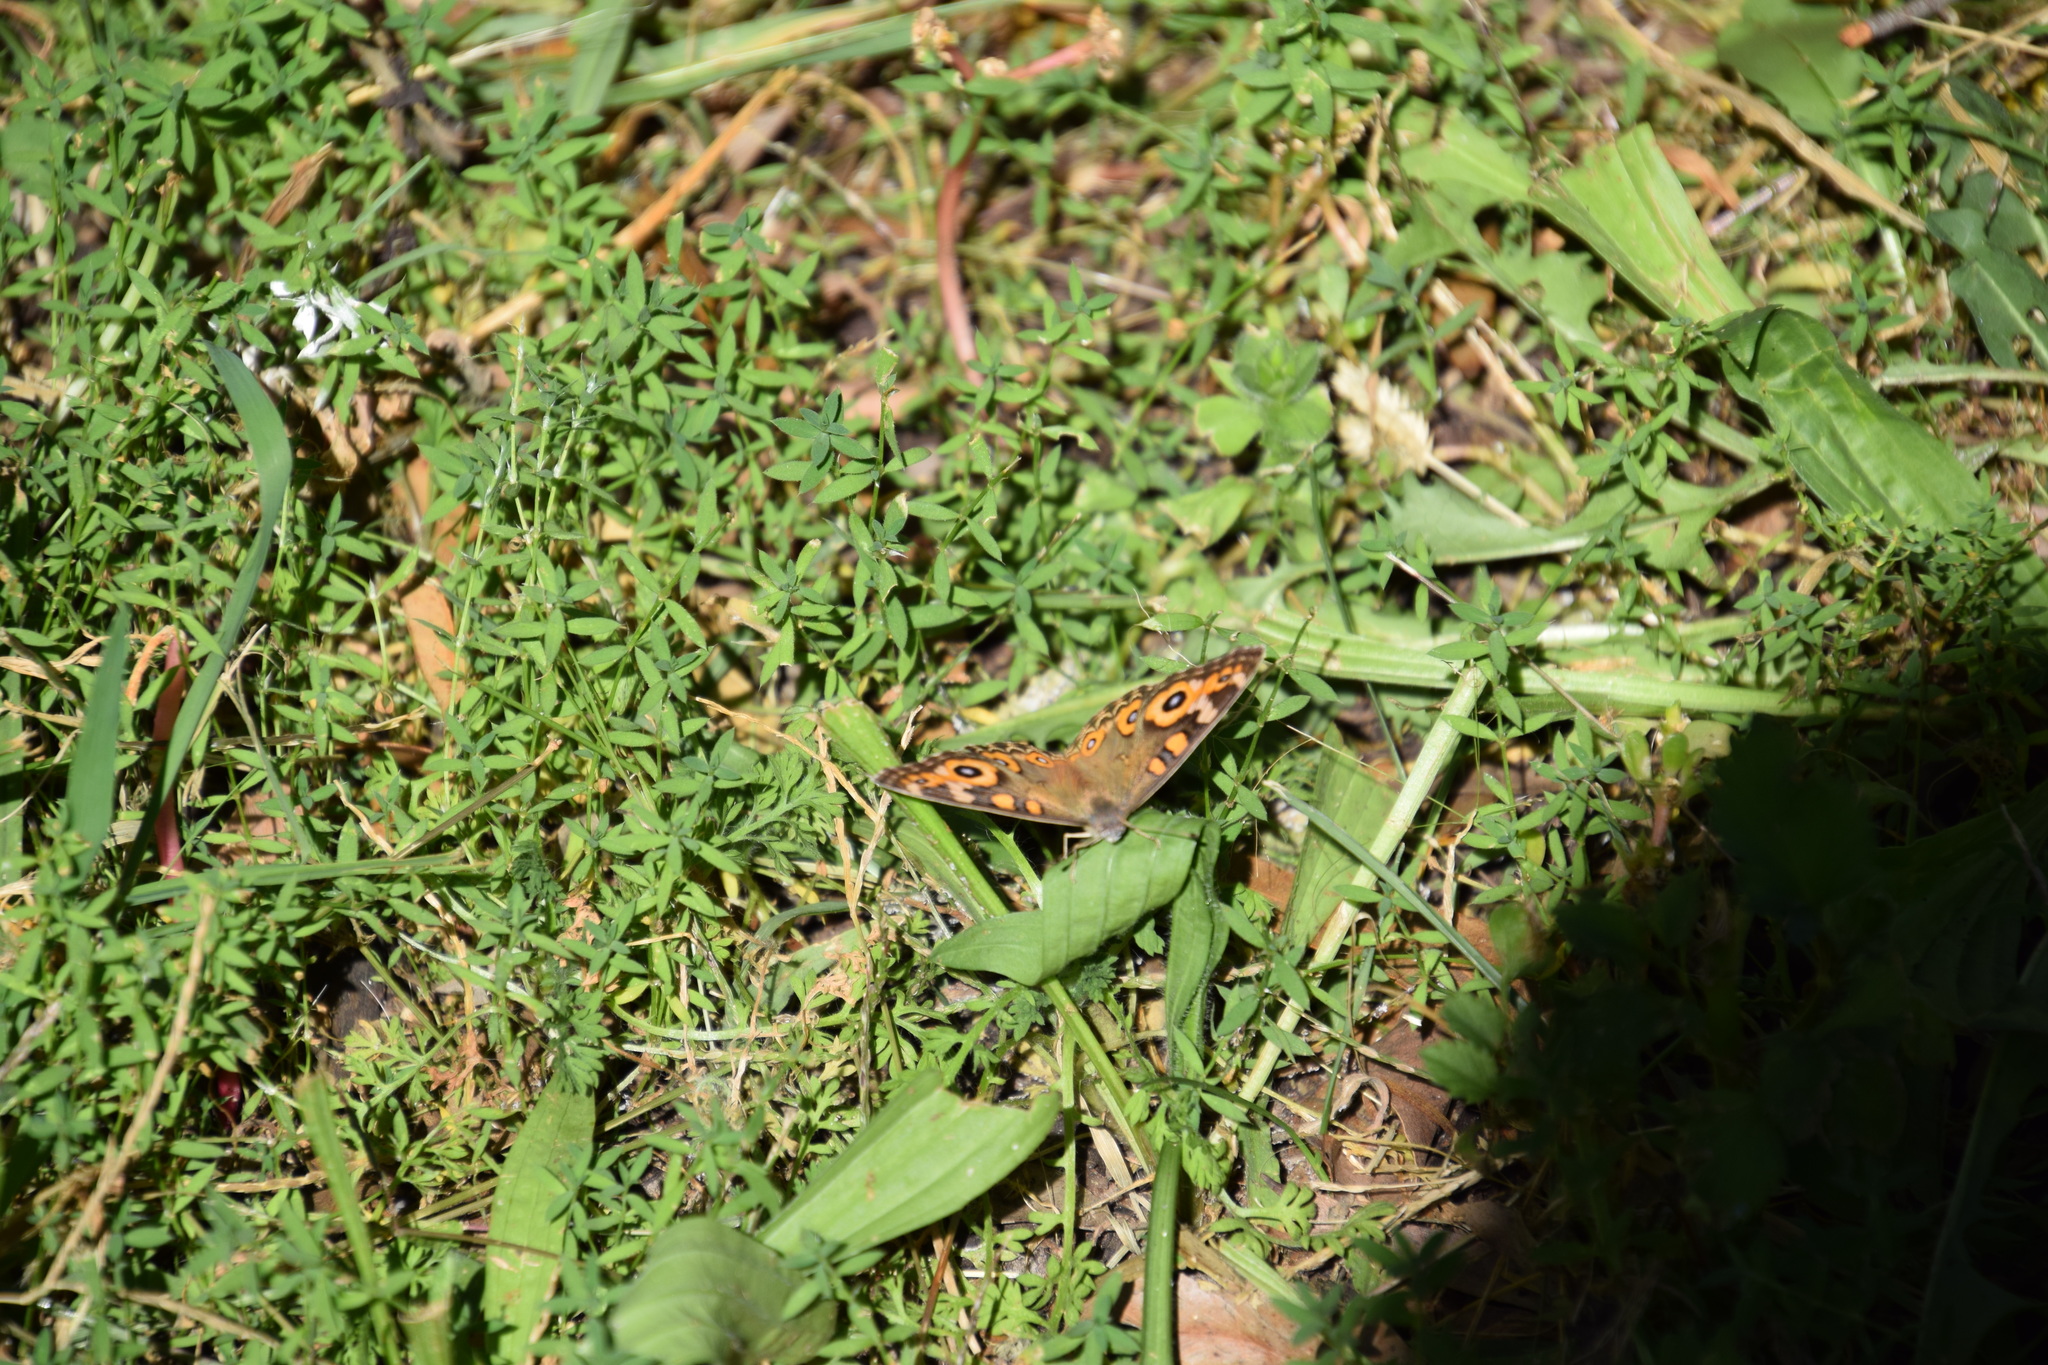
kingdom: Animalia
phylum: Arthropoda
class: Insecta
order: Lepidoptera
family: Nymphalidae
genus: Junonia
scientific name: Junonia villida
